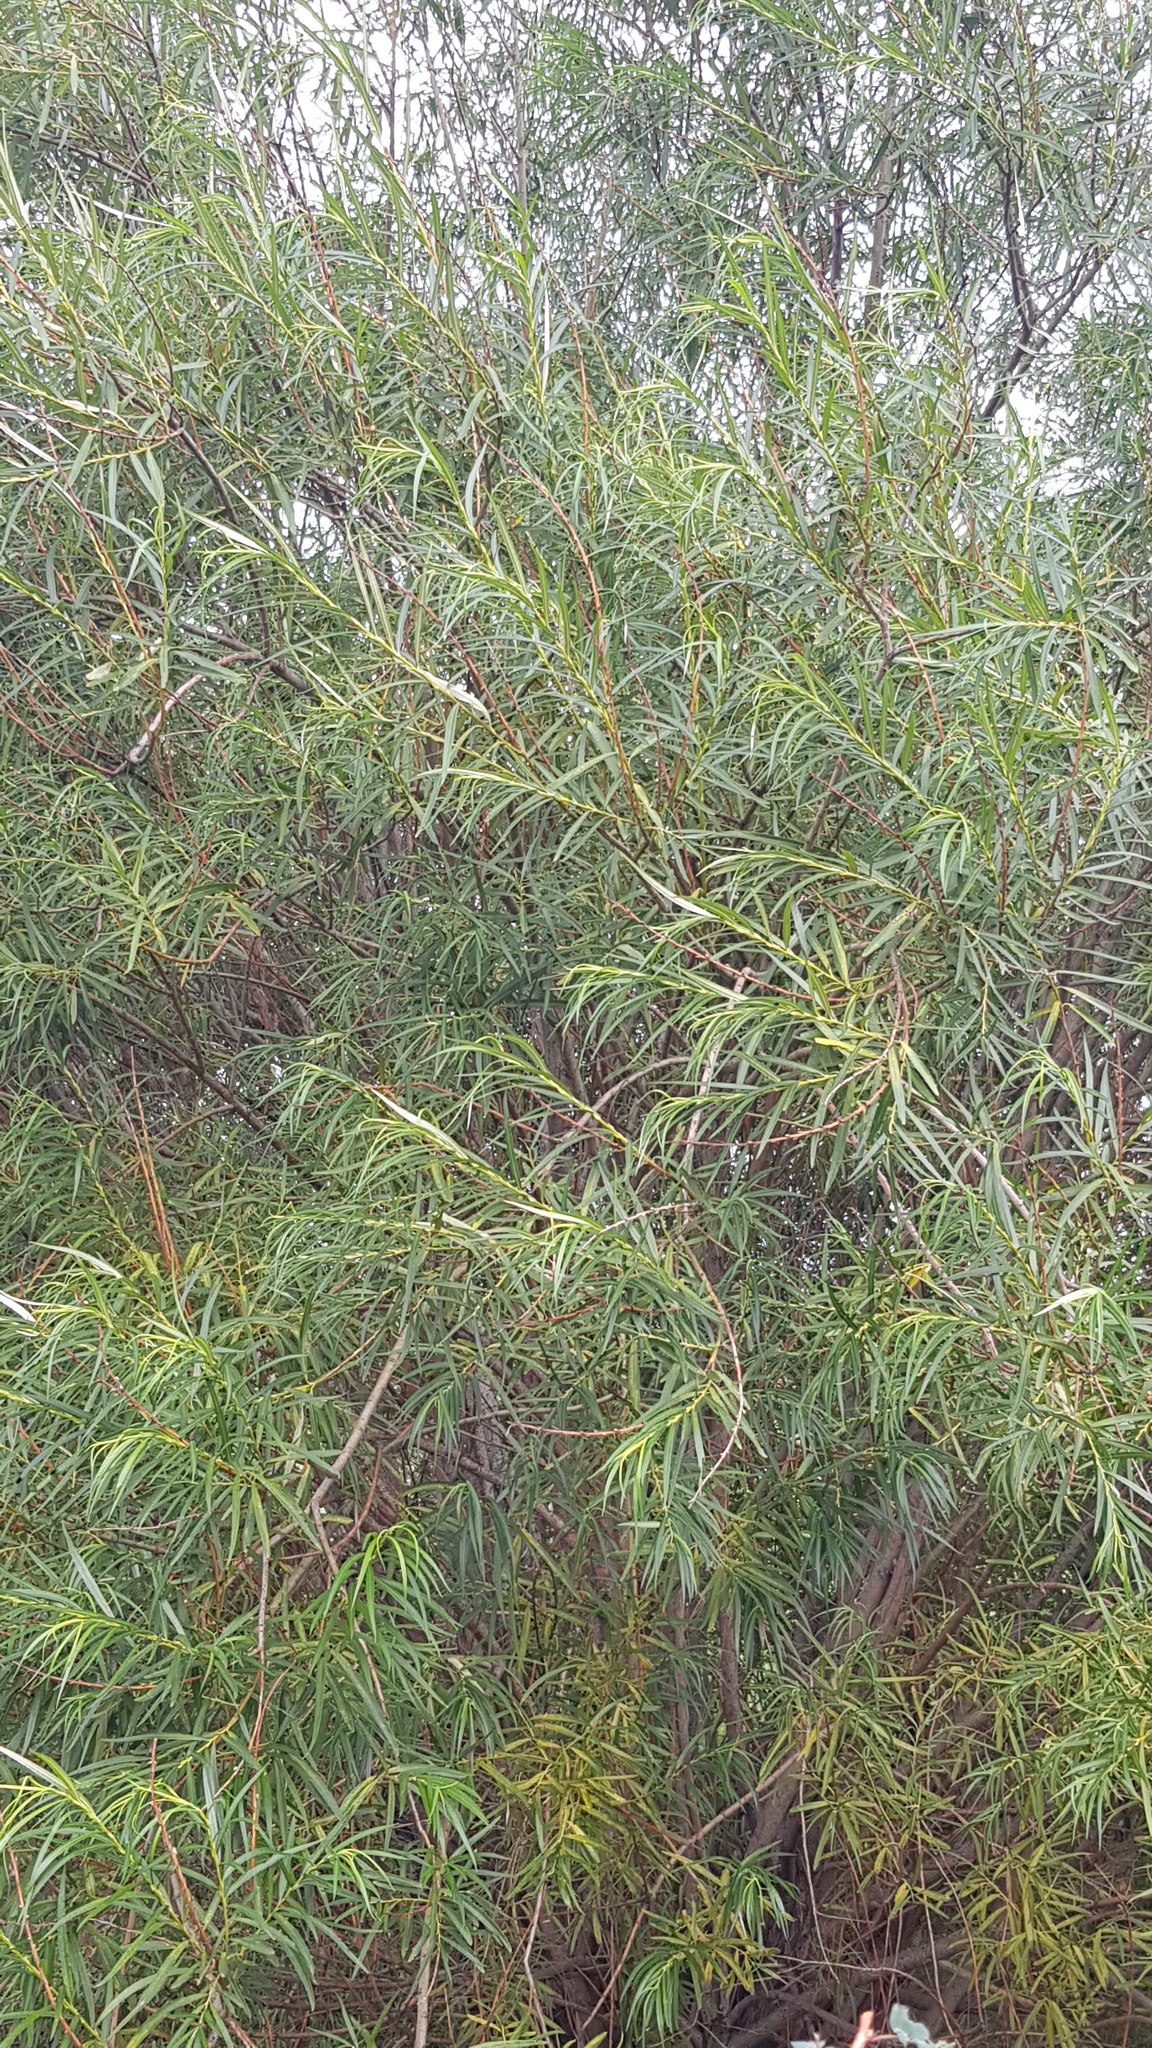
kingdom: Plantae
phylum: Tracheophyta
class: Magnoliopsida
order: Malpighiales
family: Salicaceae
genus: Salix
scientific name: Salix schwerinii
